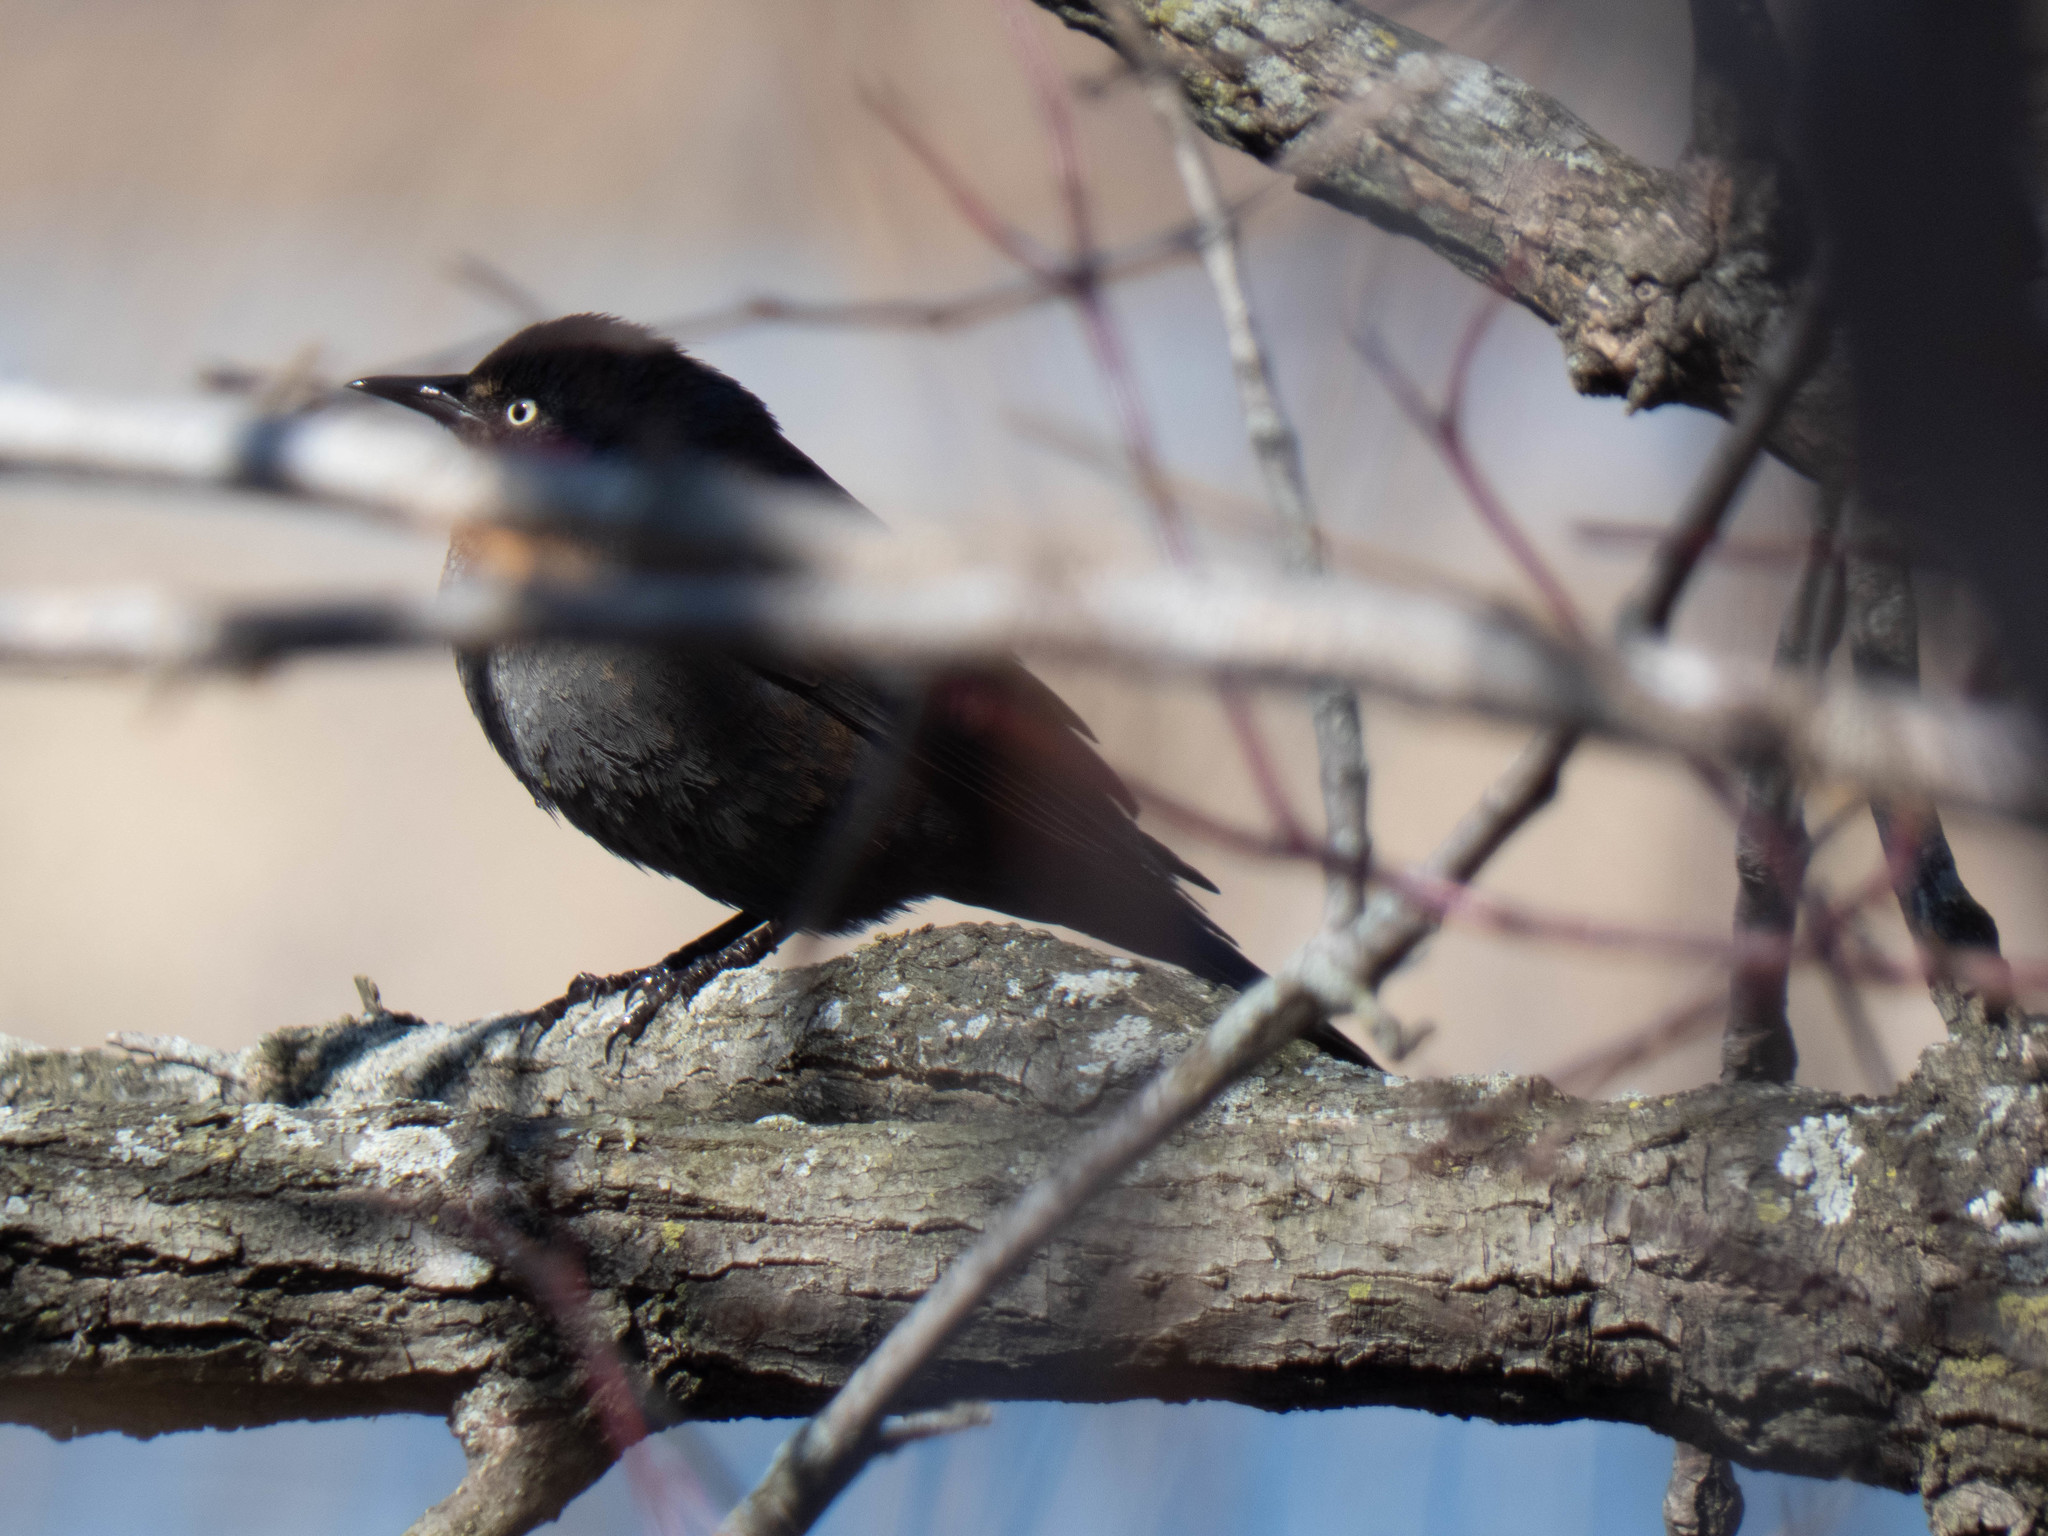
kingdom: Animalia
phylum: Chordata
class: Aves
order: Passeriformes
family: Icteridae
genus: Euphagus
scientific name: Euphagus carolinus
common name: Rusty blackbird
